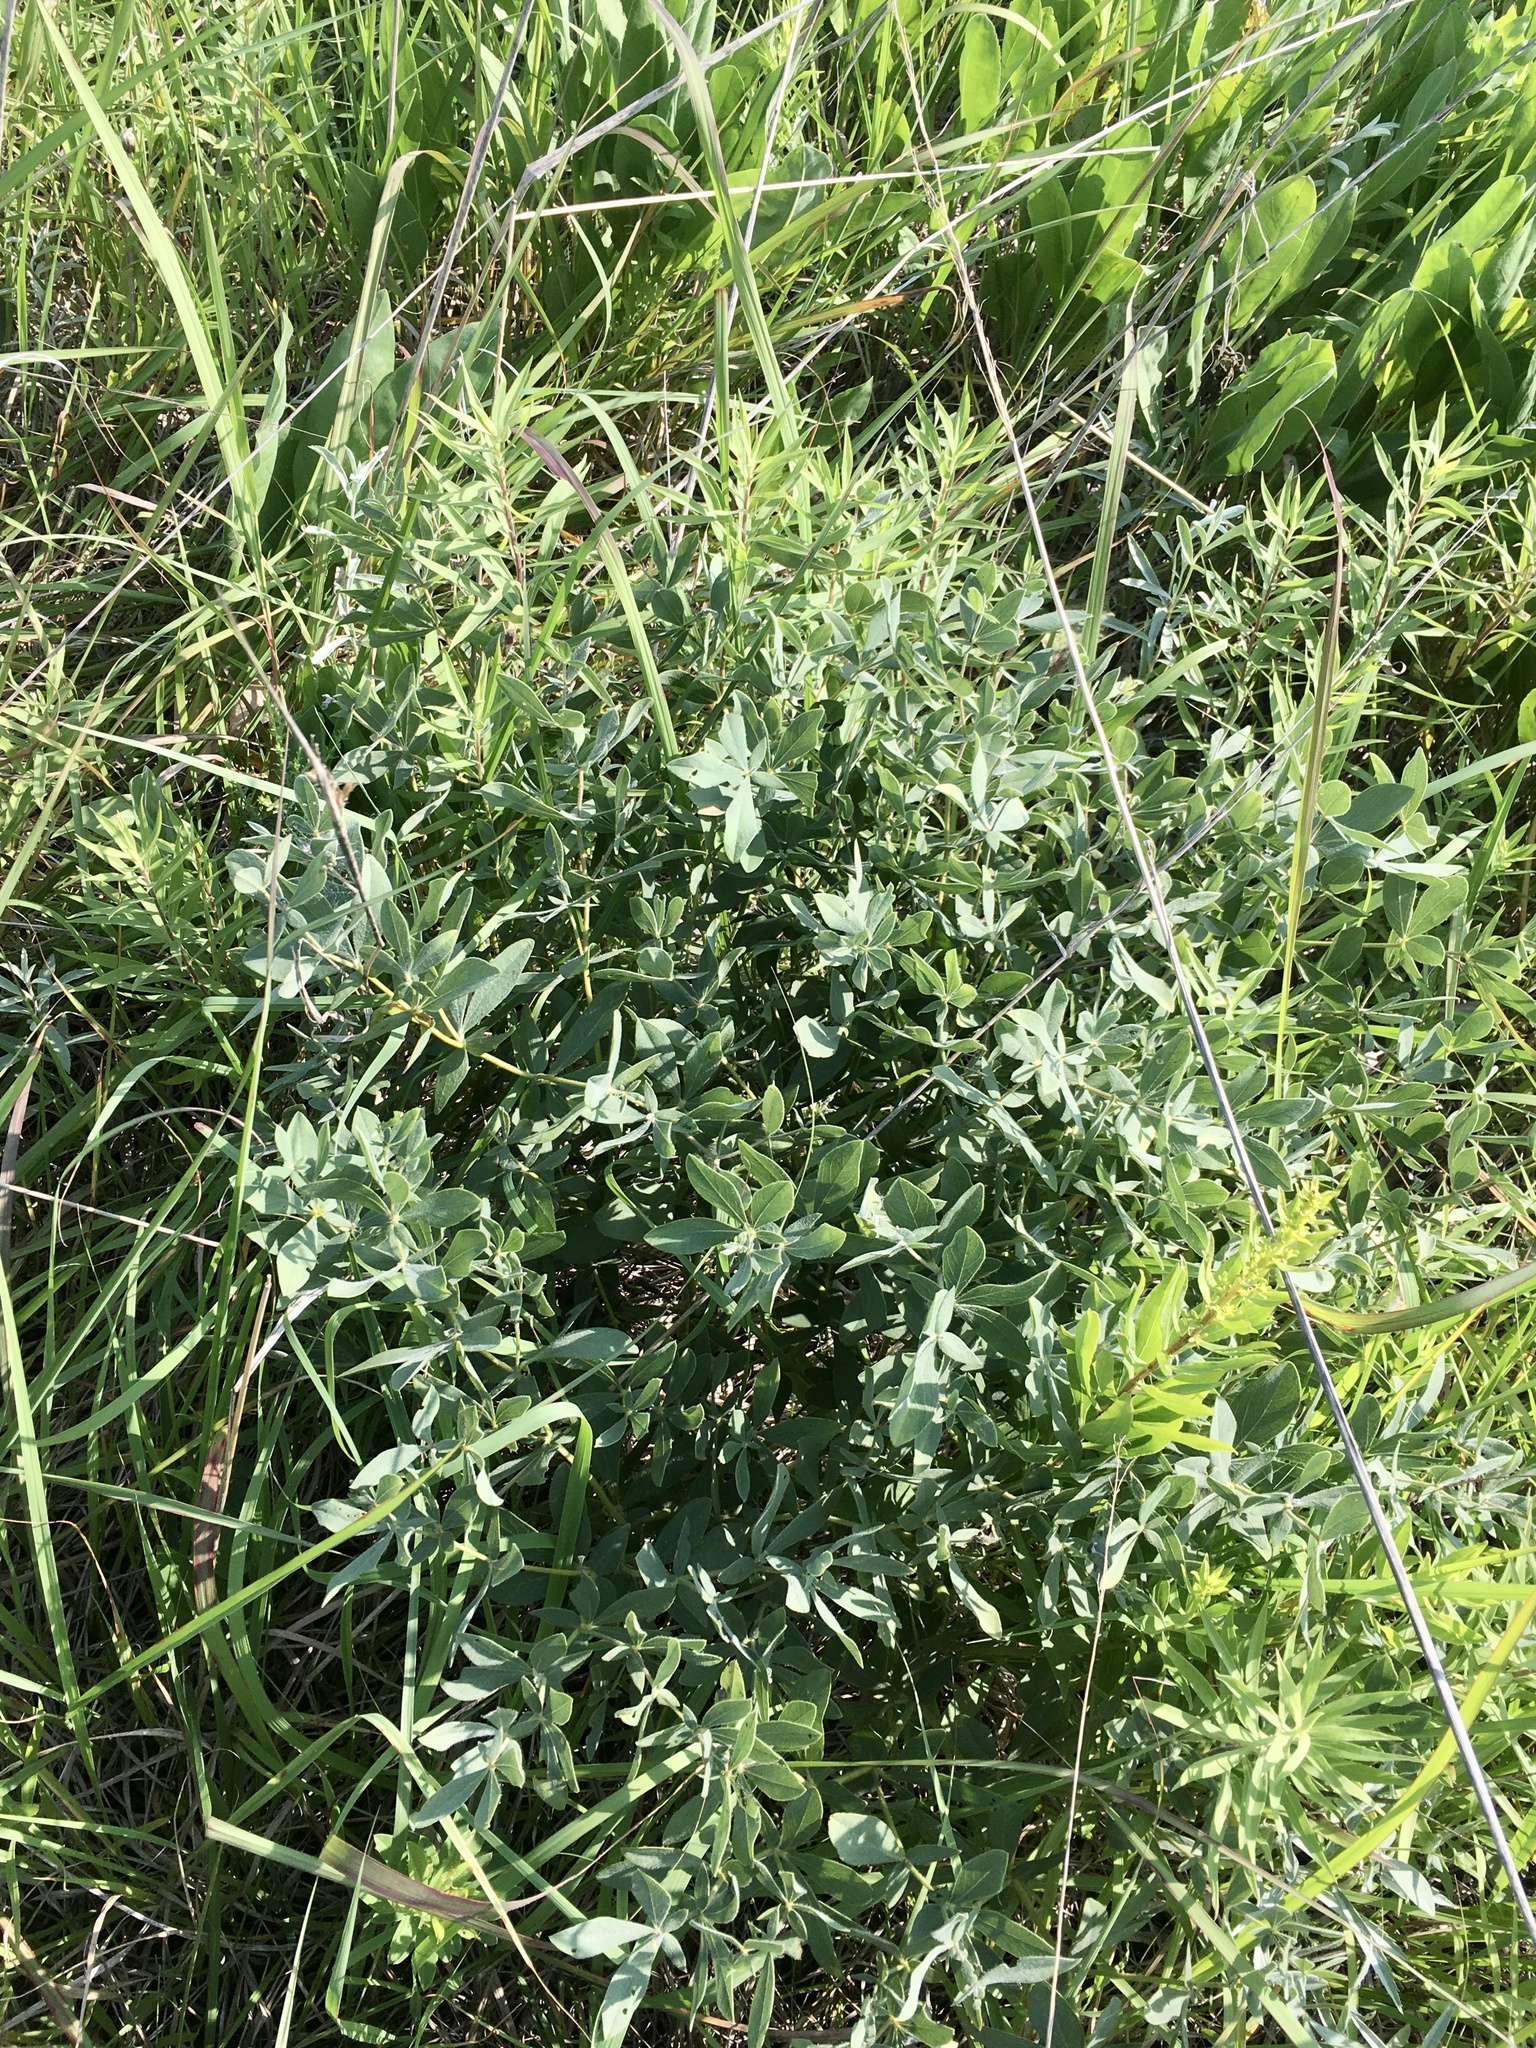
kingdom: Plantae
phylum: Tracheophyta
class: Magnoliopsida
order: Fabales
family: Fabaceae
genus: Baptisia
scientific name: Baptisia bracteata
